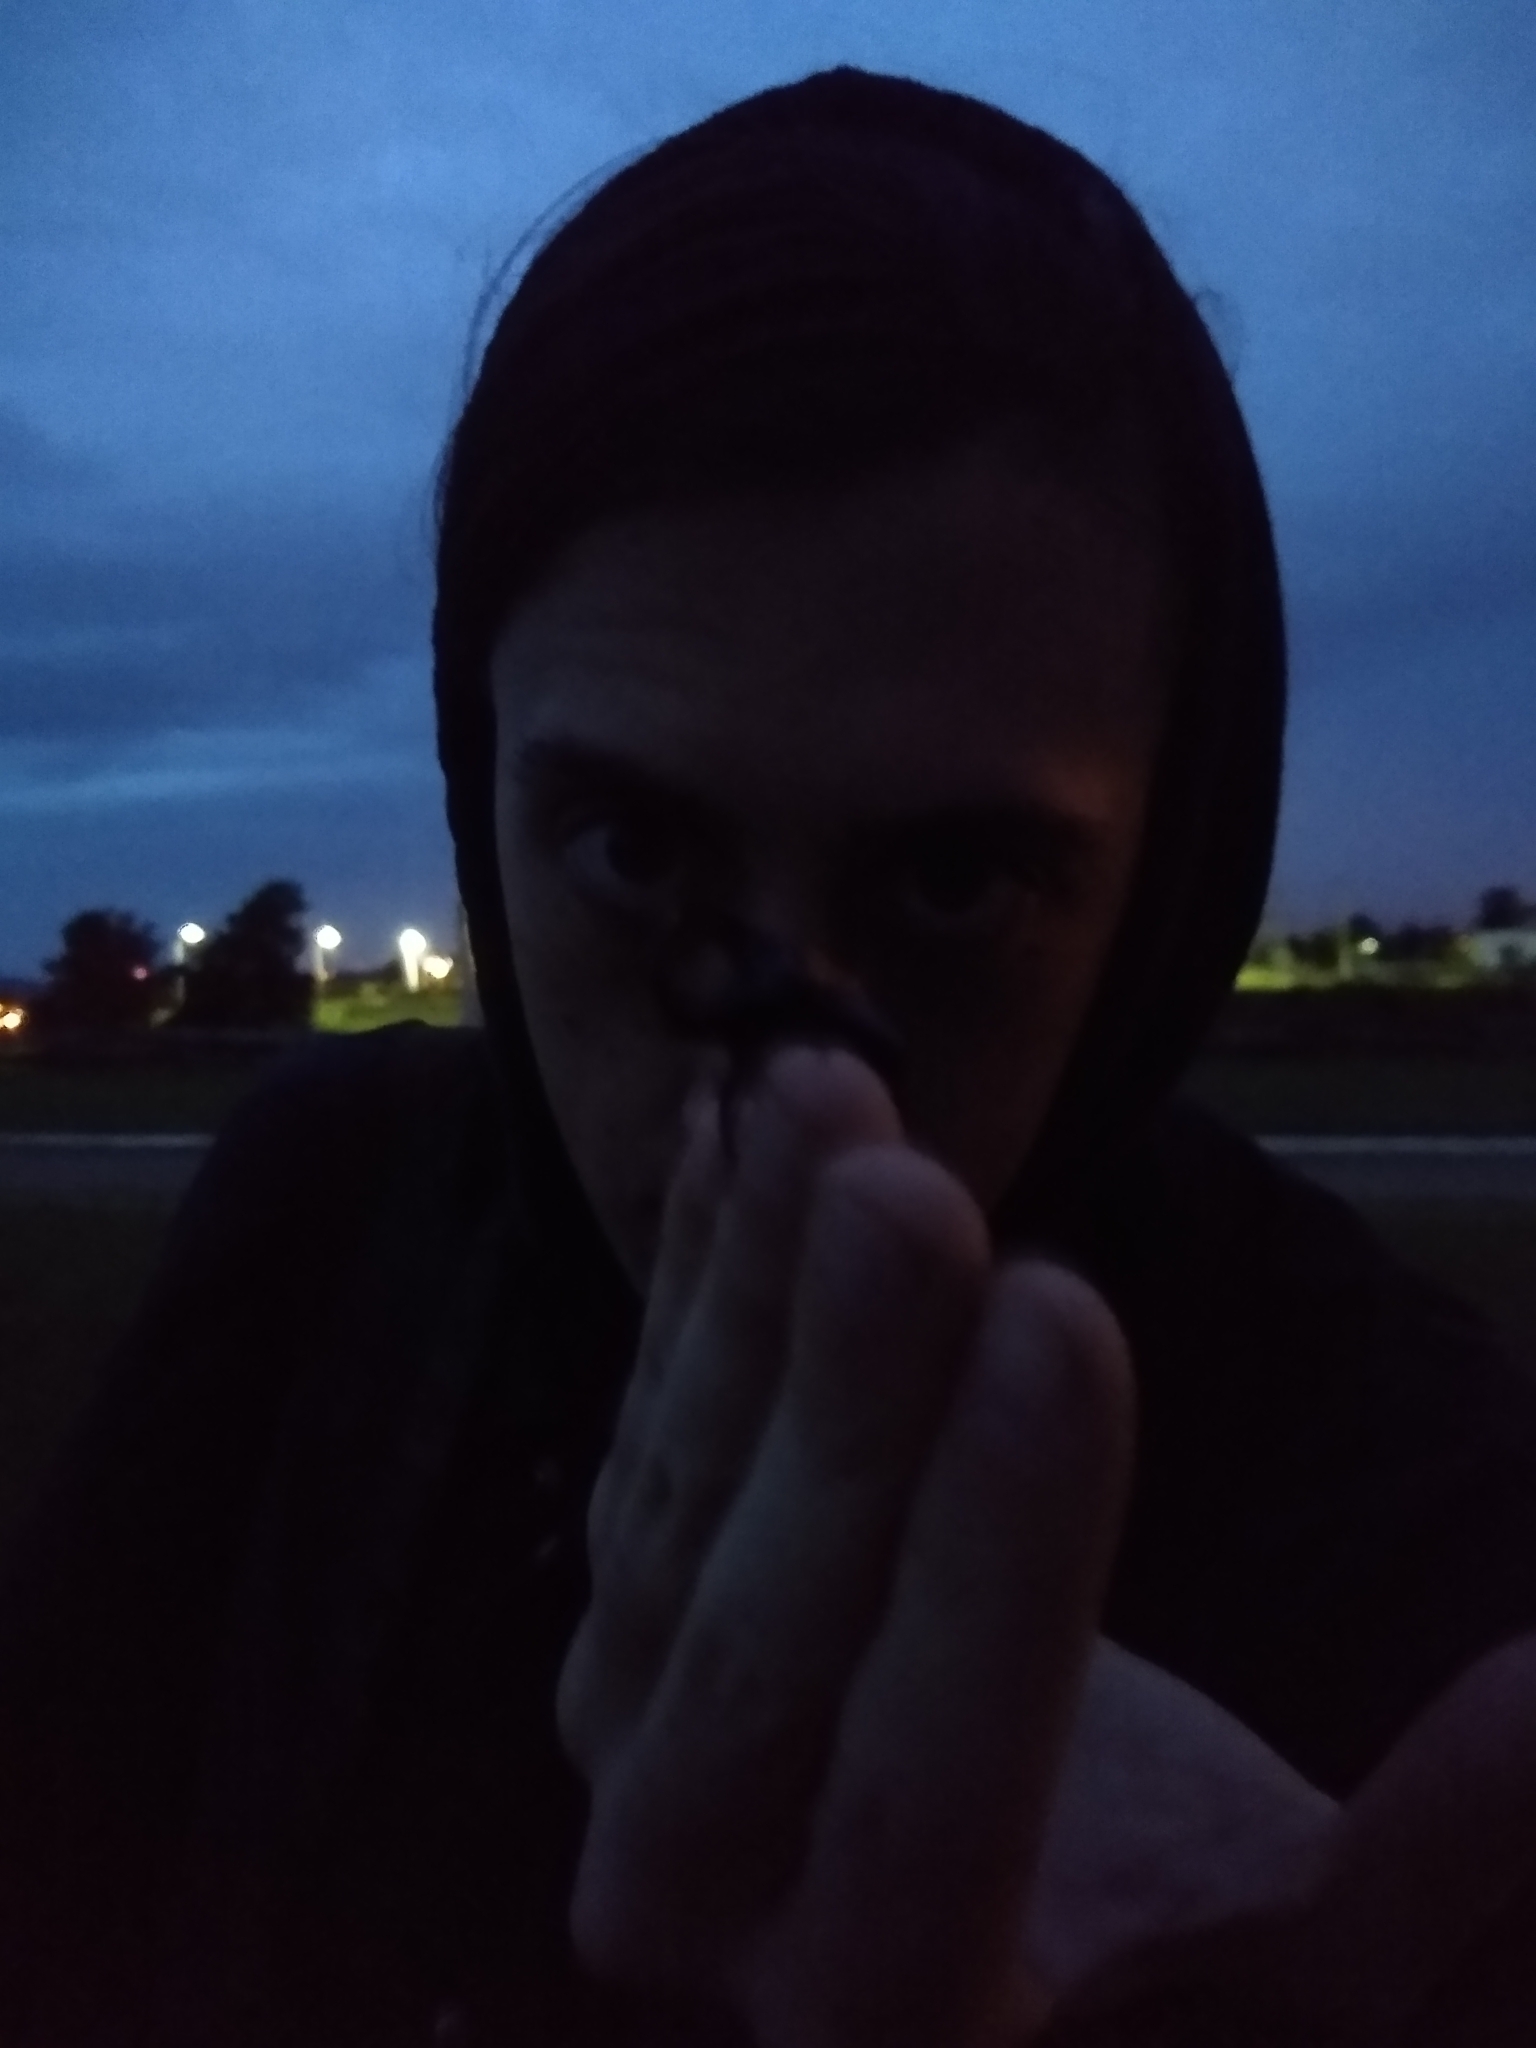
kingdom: Animalia
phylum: Arthropoda
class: Insecta
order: Coleoptera
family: Scarabaeidae
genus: Diloboderus
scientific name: Diloboderus abderus
